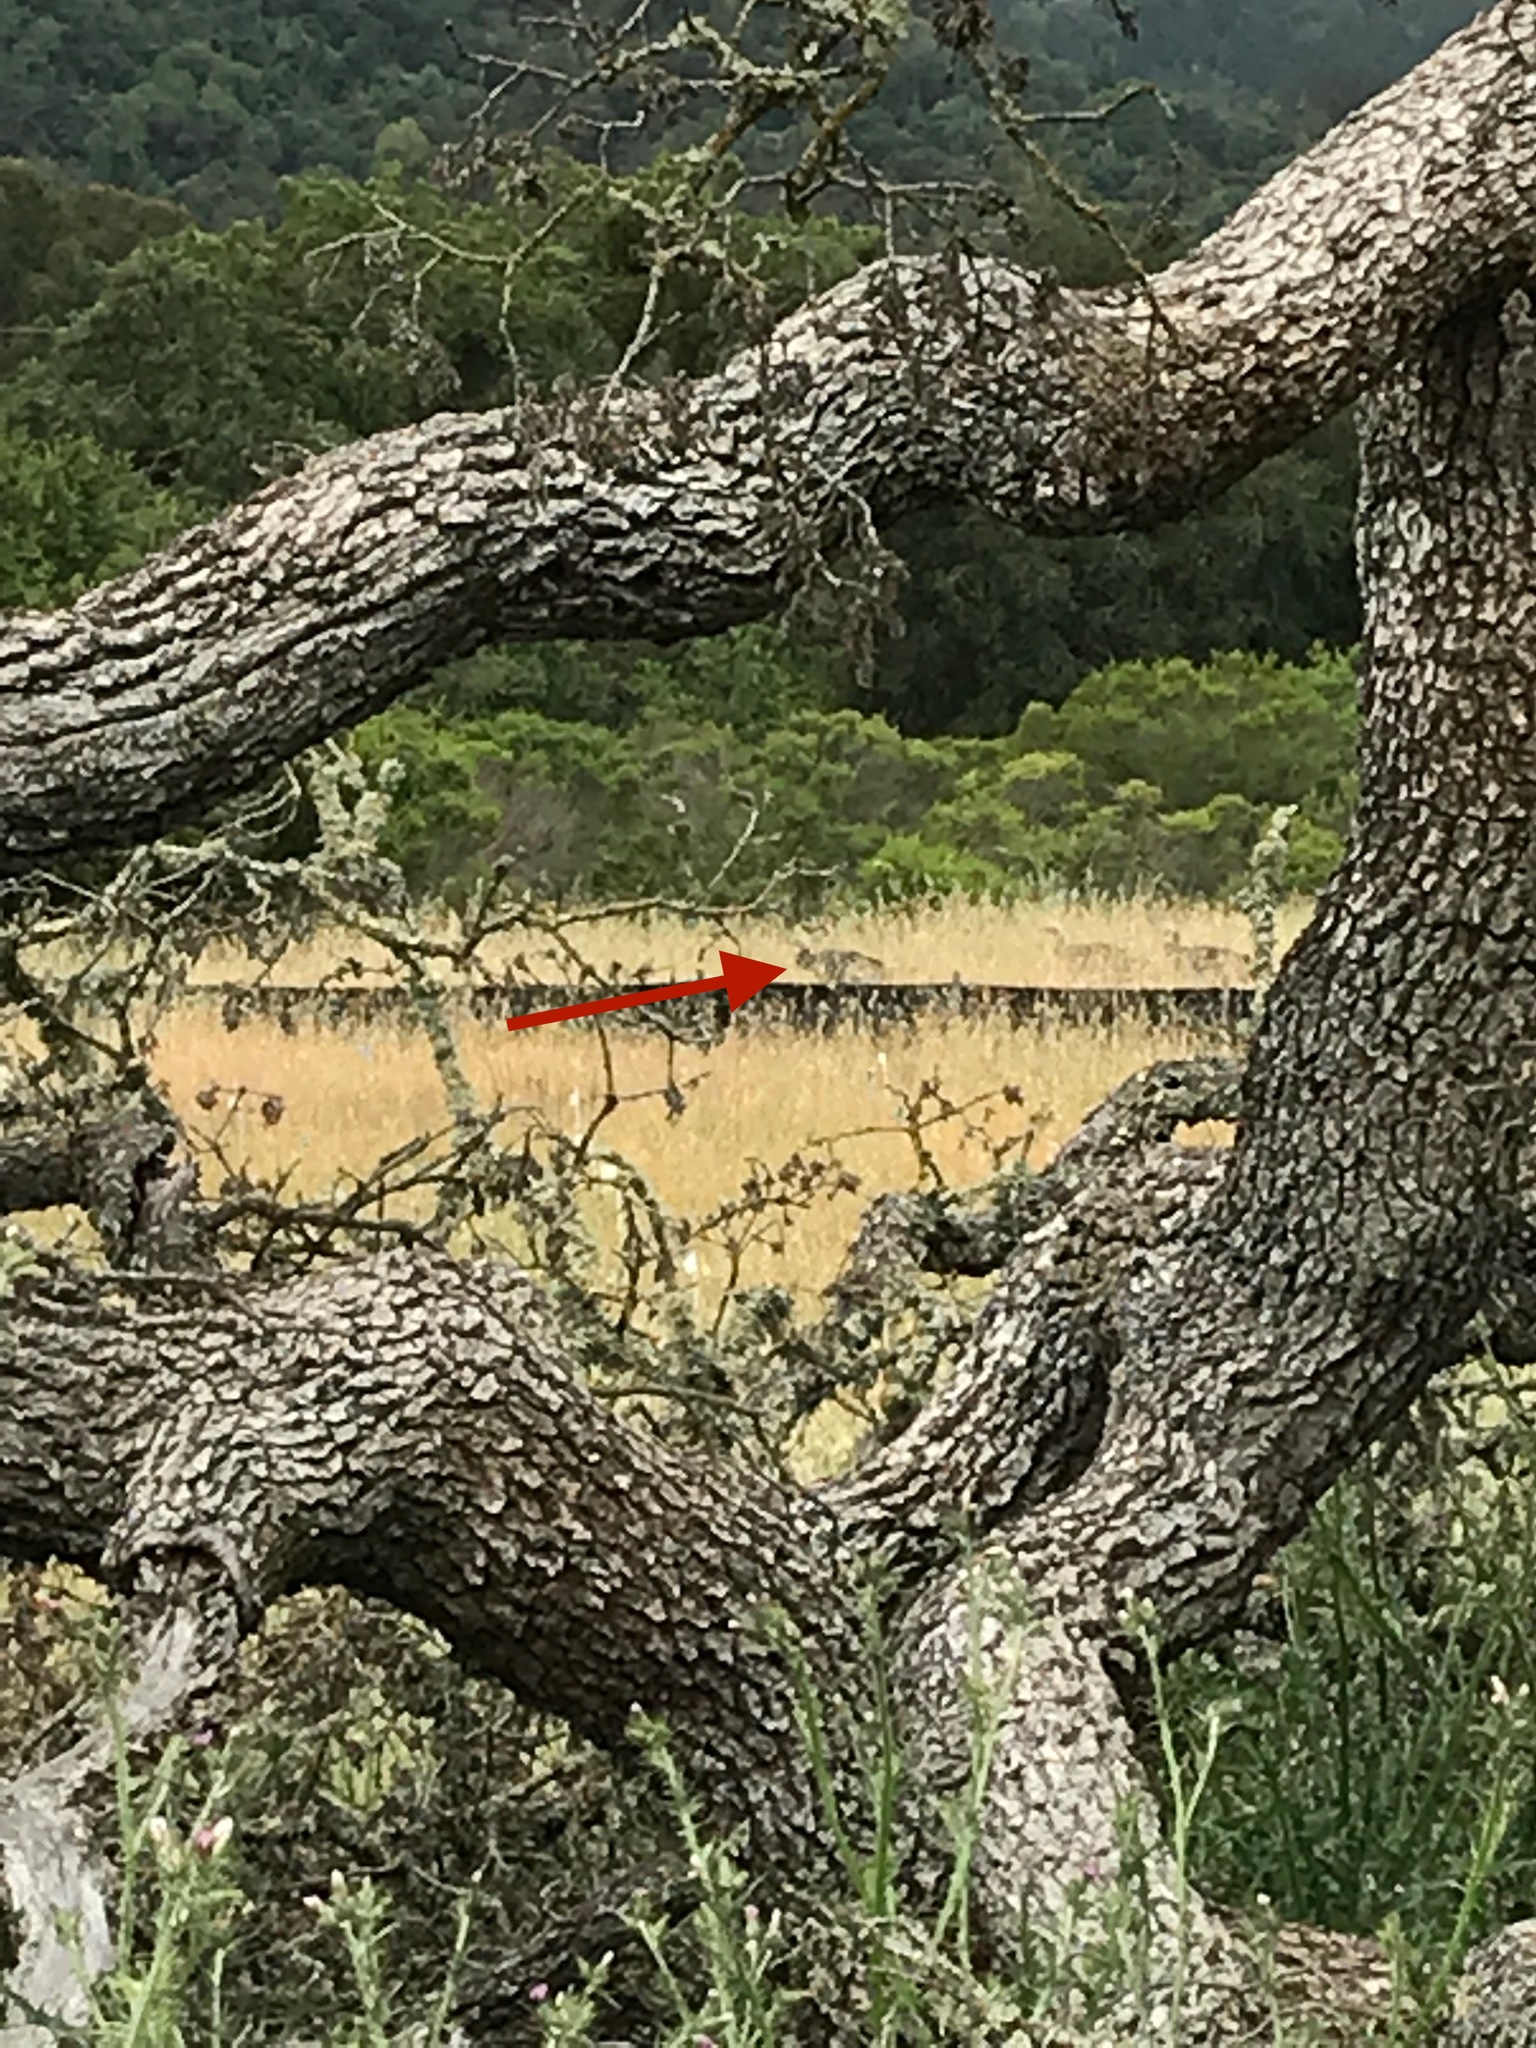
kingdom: Animalia
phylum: Chordata
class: Aves
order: Galliformes
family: Phasianidae
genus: Meleagris
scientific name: Meleagris gallopavo
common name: Wild turkey
